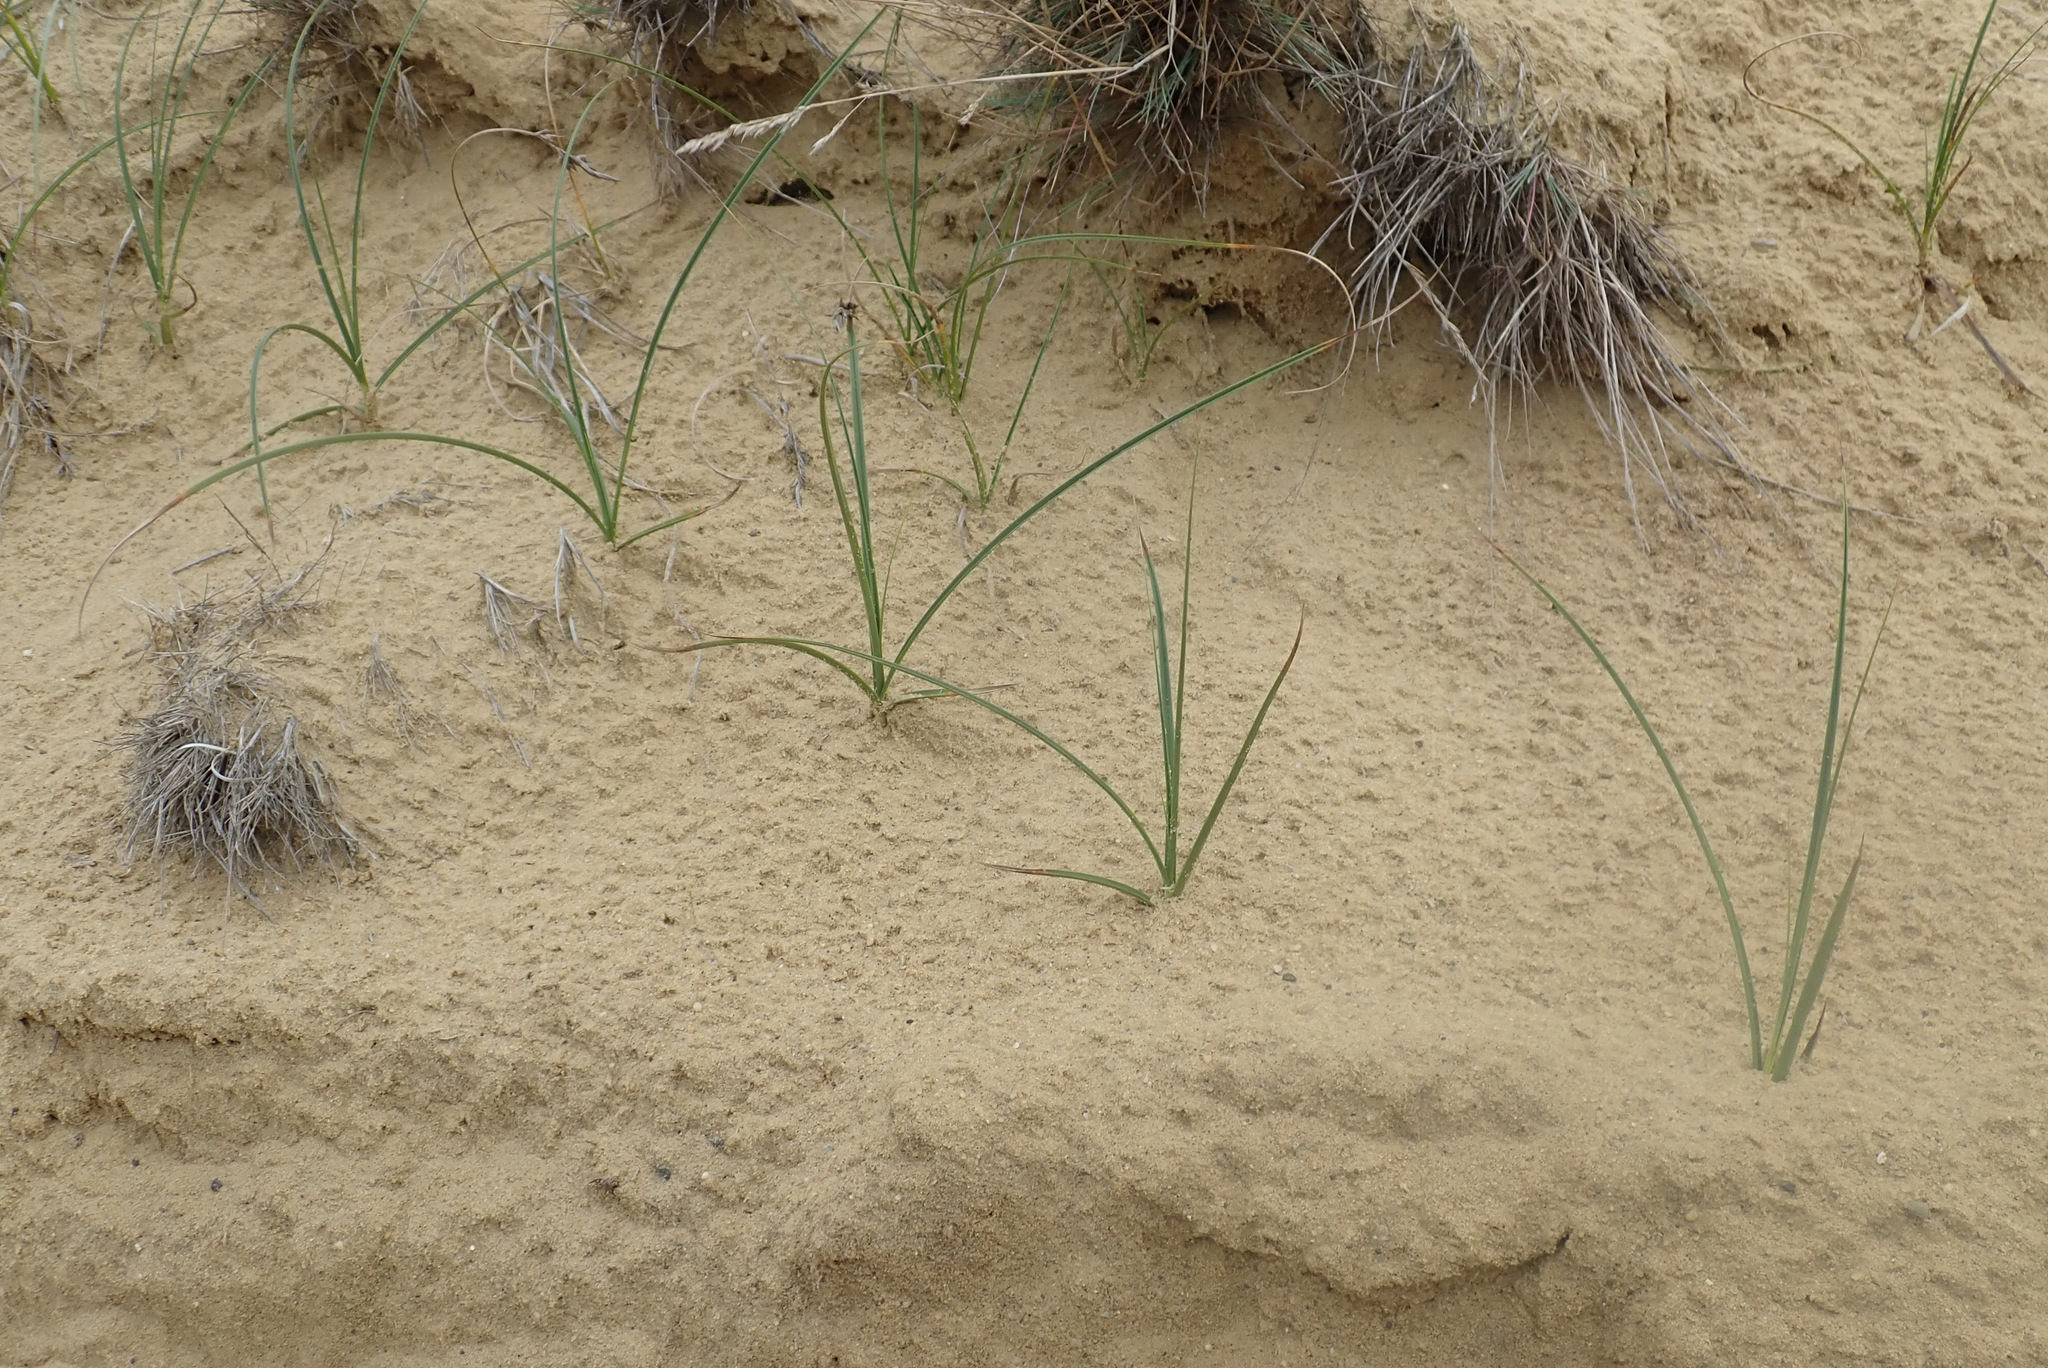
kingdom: Plantae
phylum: Tracheophyta
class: Liliopsida
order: Poales
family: Cyperaceae
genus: Carex
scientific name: Carex arenaria
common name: Sand sedge
